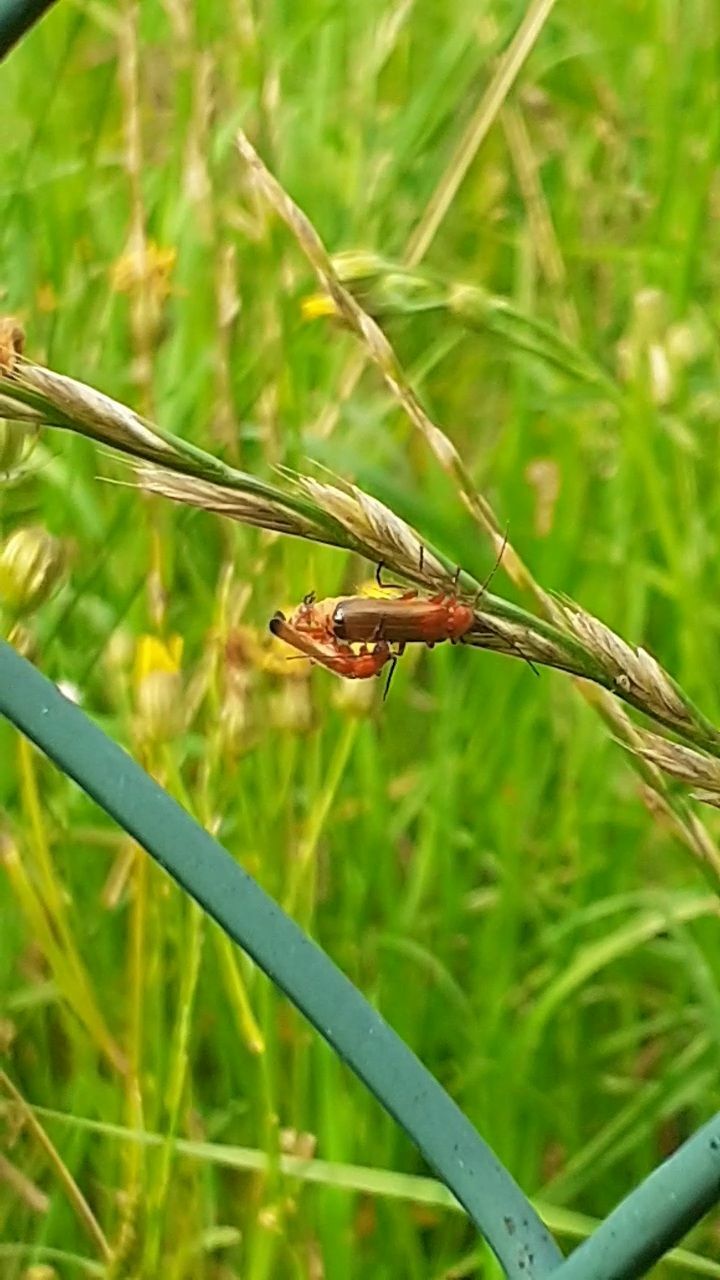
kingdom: Animalia
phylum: Arthropoda
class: Insecta
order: Coleoptera
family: Cantharidae
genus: Rhagonycha
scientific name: Rhagonycha fulva
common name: Common red soldier beetle
